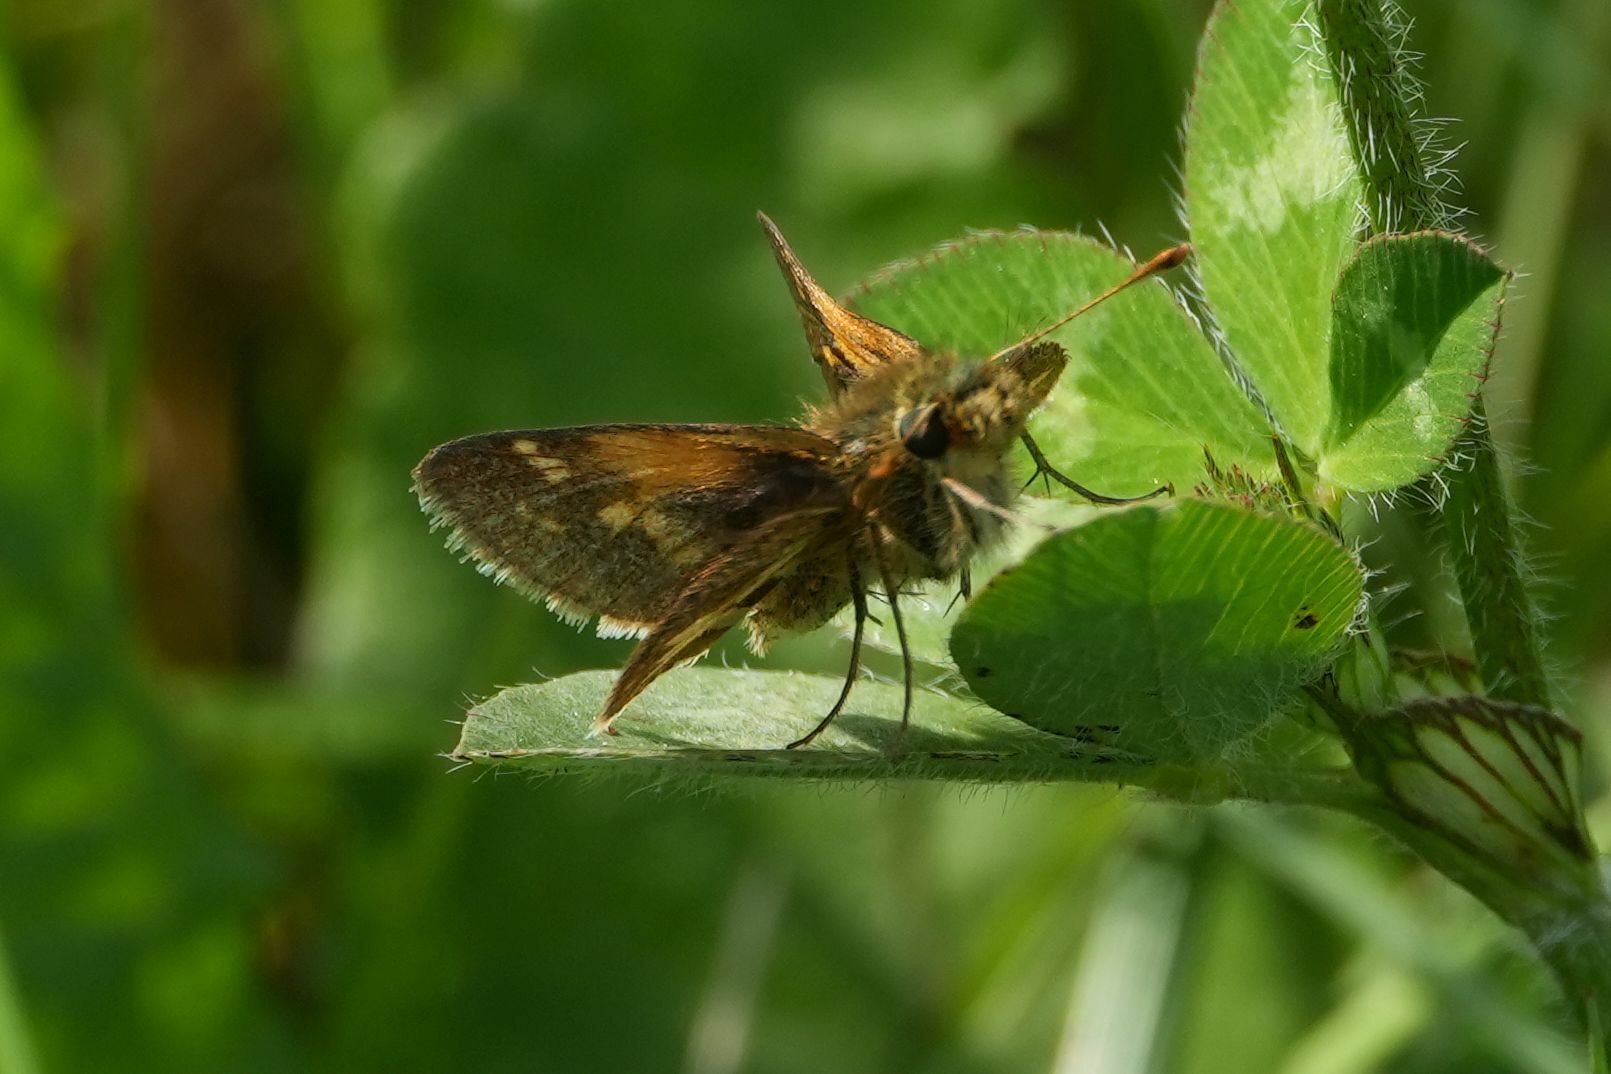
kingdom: Animalia
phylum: Arthropoda
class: Insecta
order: Lepidoptera
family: Hesperiidae
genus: Polites
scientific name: Polites coras
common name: Peck's skipper
